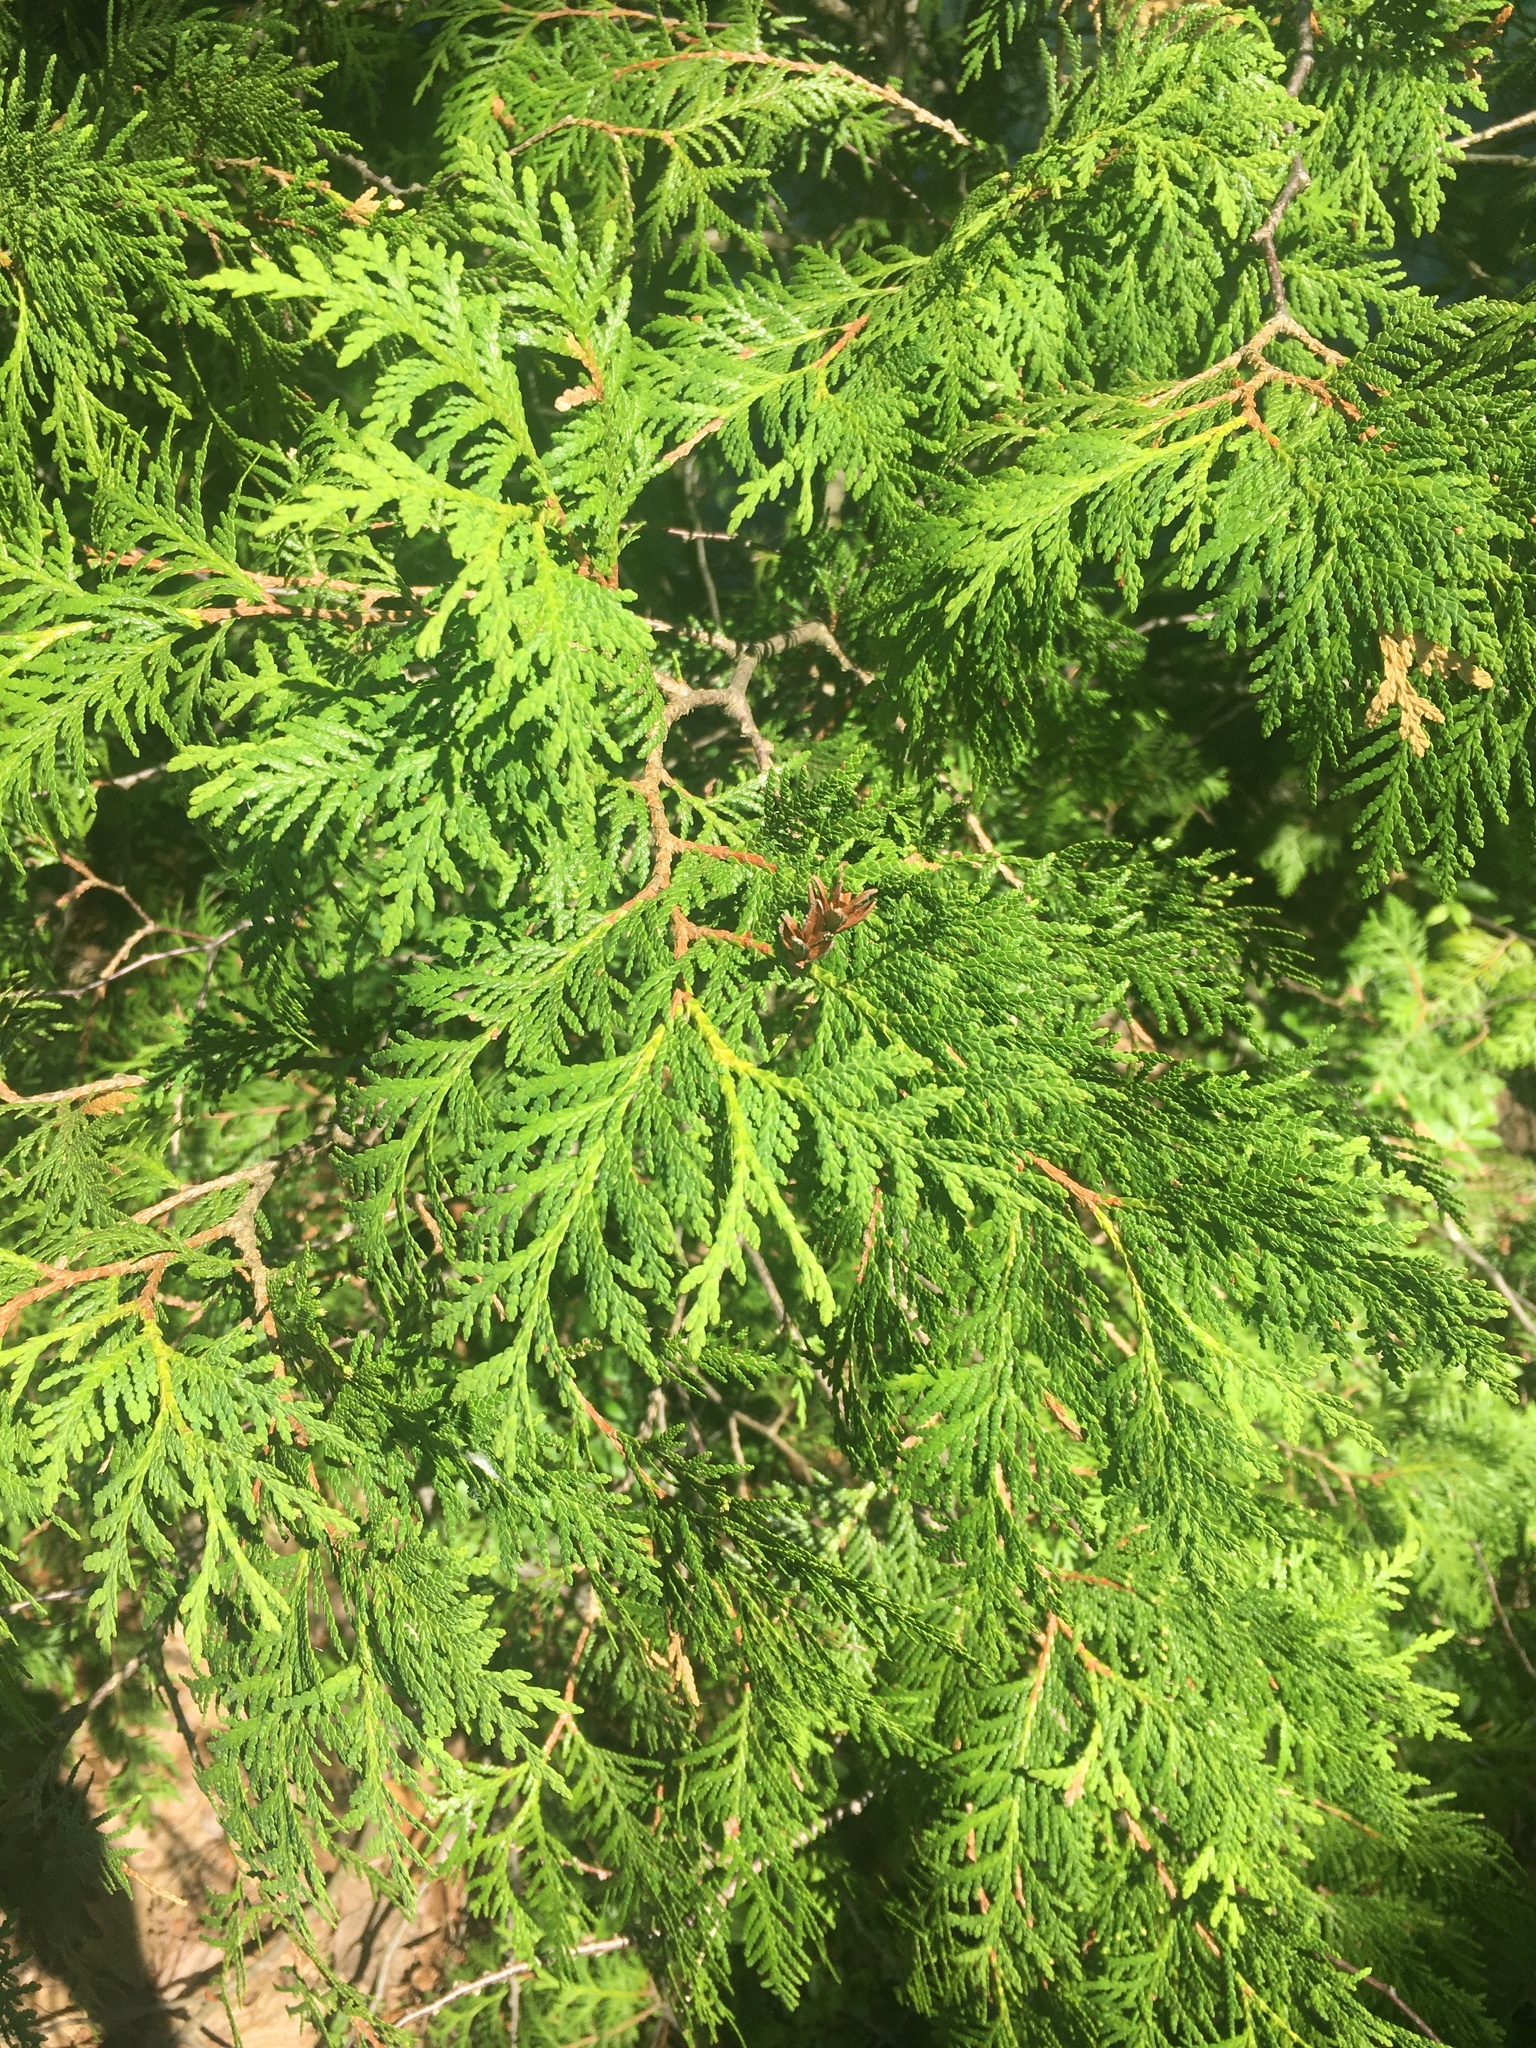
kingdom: Plantae
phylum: Tracheophyta
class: Pinopsida
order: Pinales
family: Cupressaceae
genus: Thuja
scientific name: Thuja occidentalis
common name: Northern white-cedar
